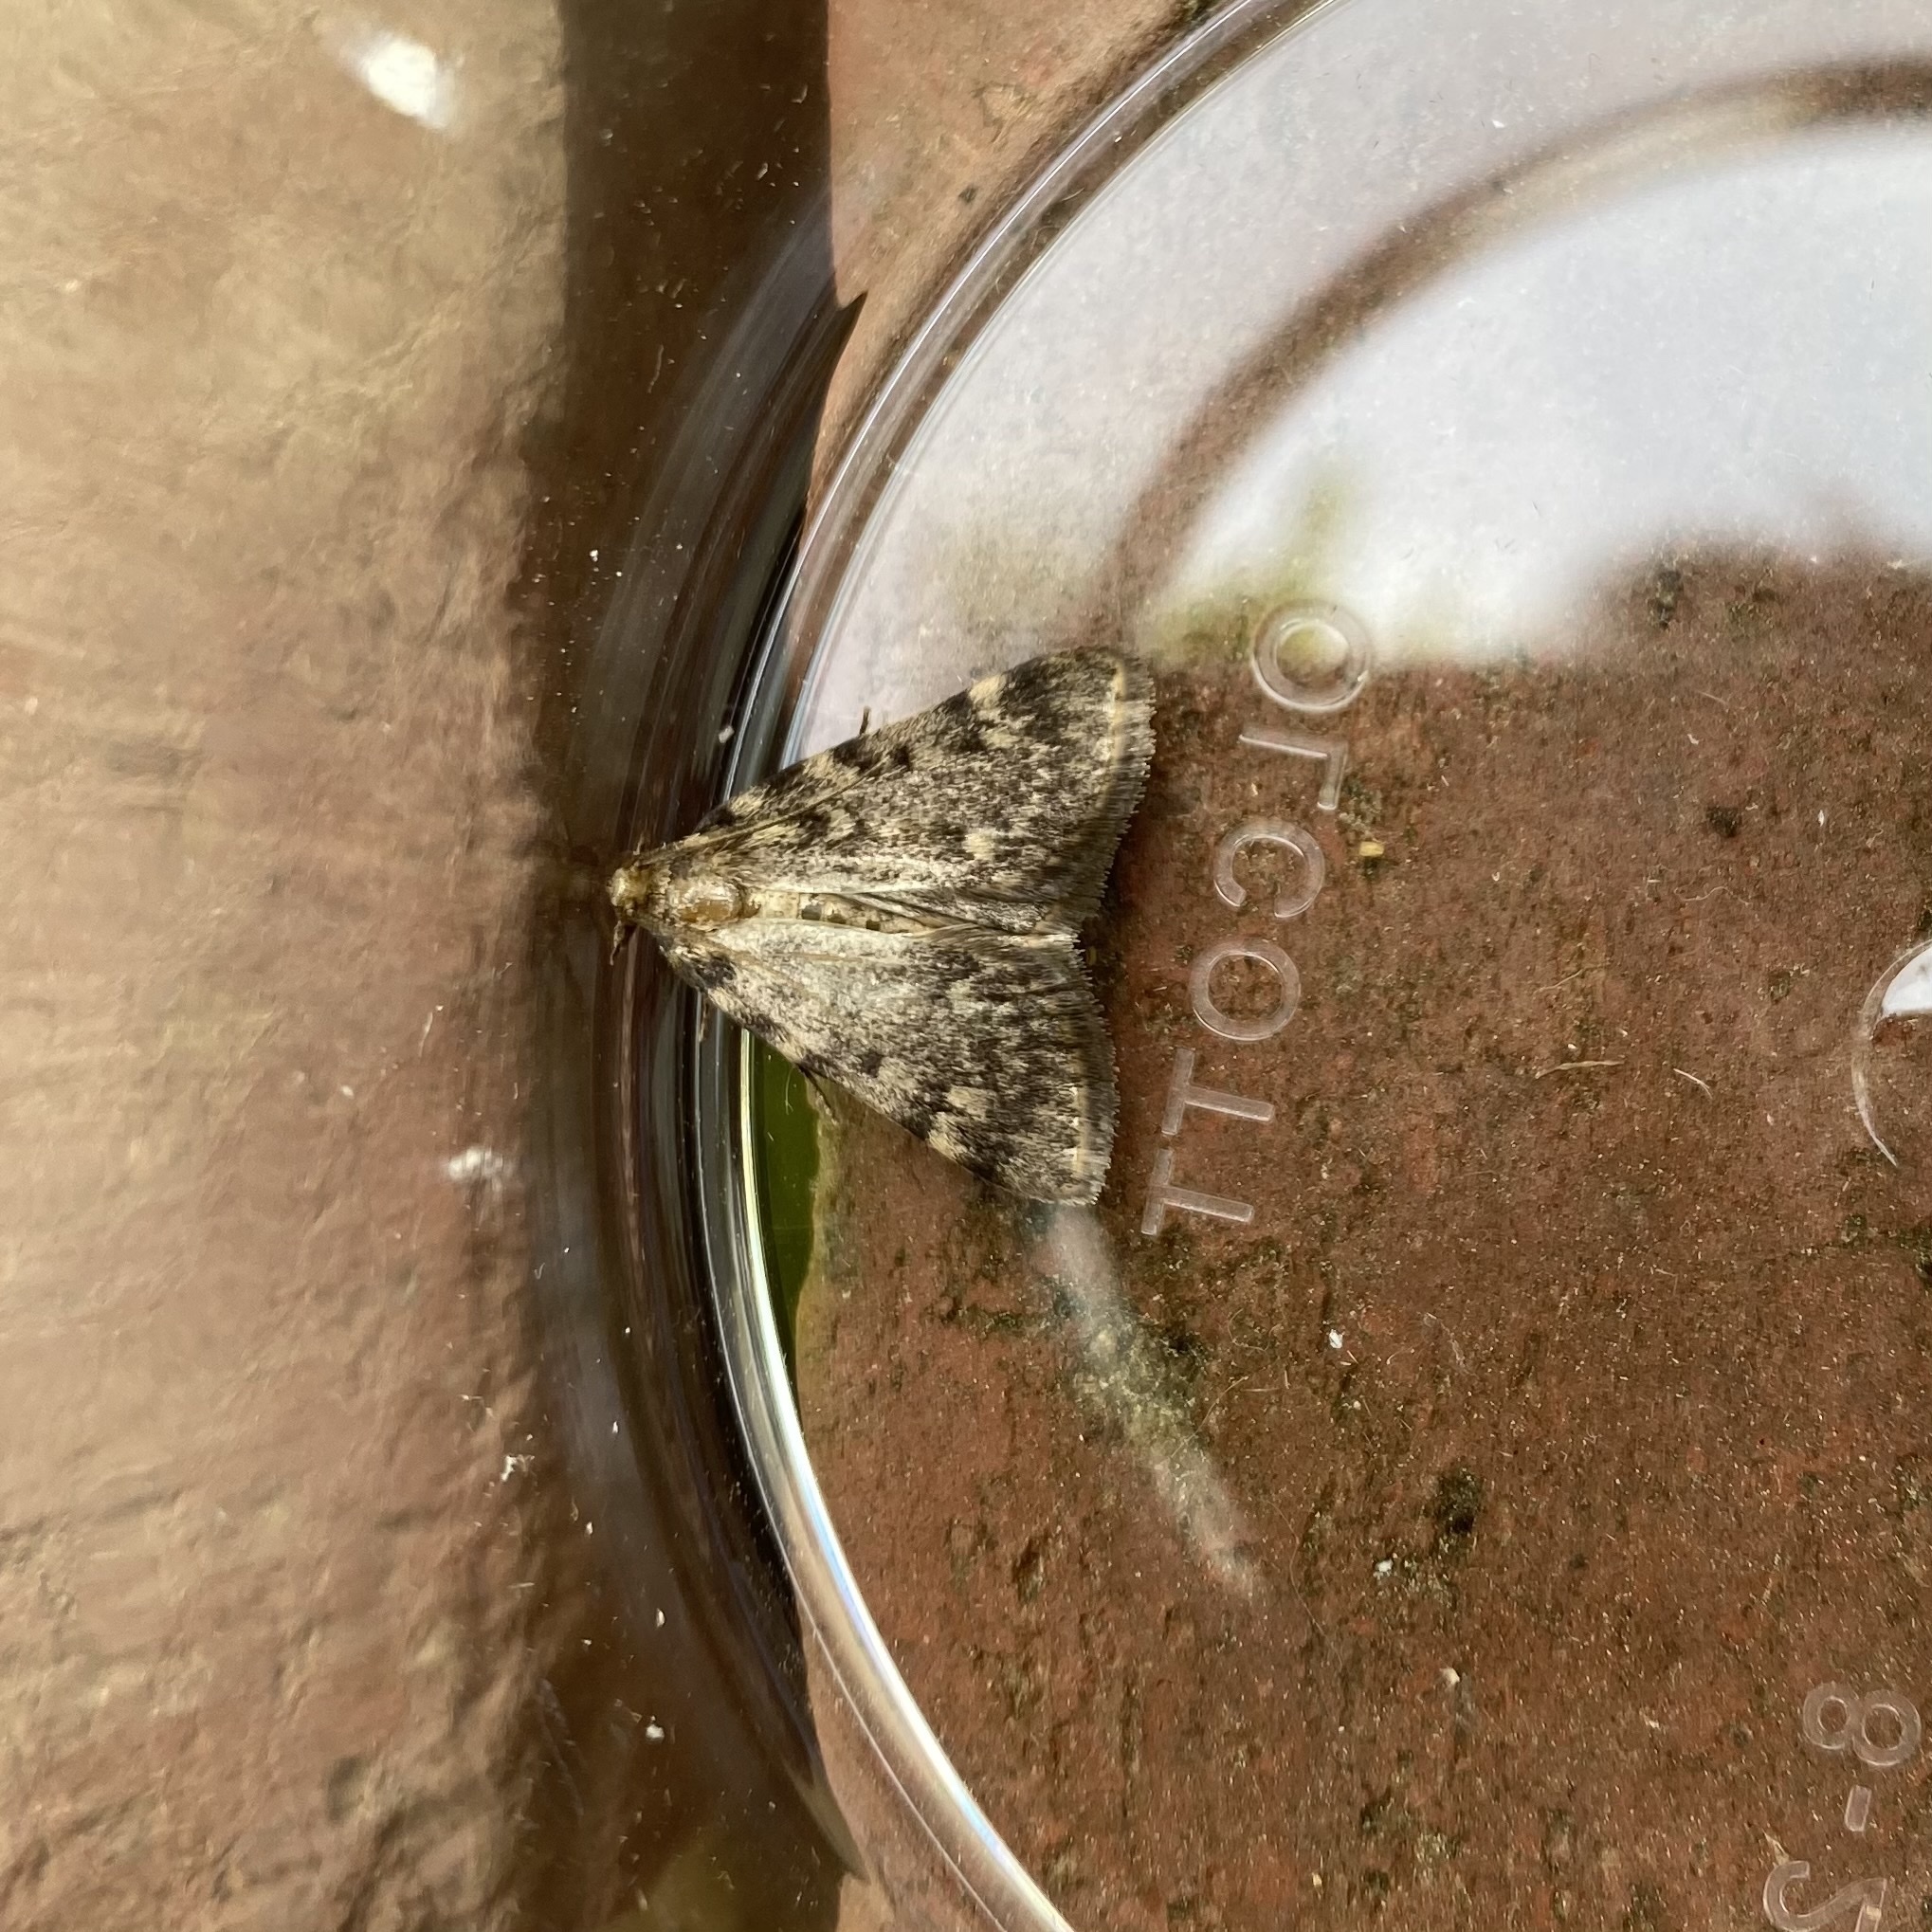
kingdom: Animalia
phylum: Arthropoda
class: Insecta
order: Lepidoptera
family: Pyralidae
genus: Aglossa
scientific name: Aglossa pinguinalis
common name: Large tabby
